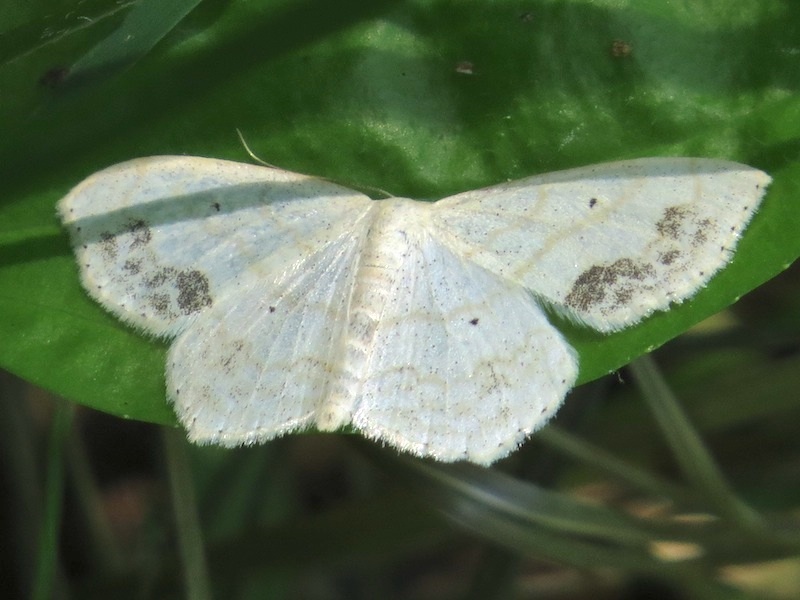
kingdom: Animalia
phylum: Arthropoda
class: Insecta
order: Lepidoptera
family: Geometridae
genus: Scopula
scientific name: Scopula limboundata
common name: Large lace border
